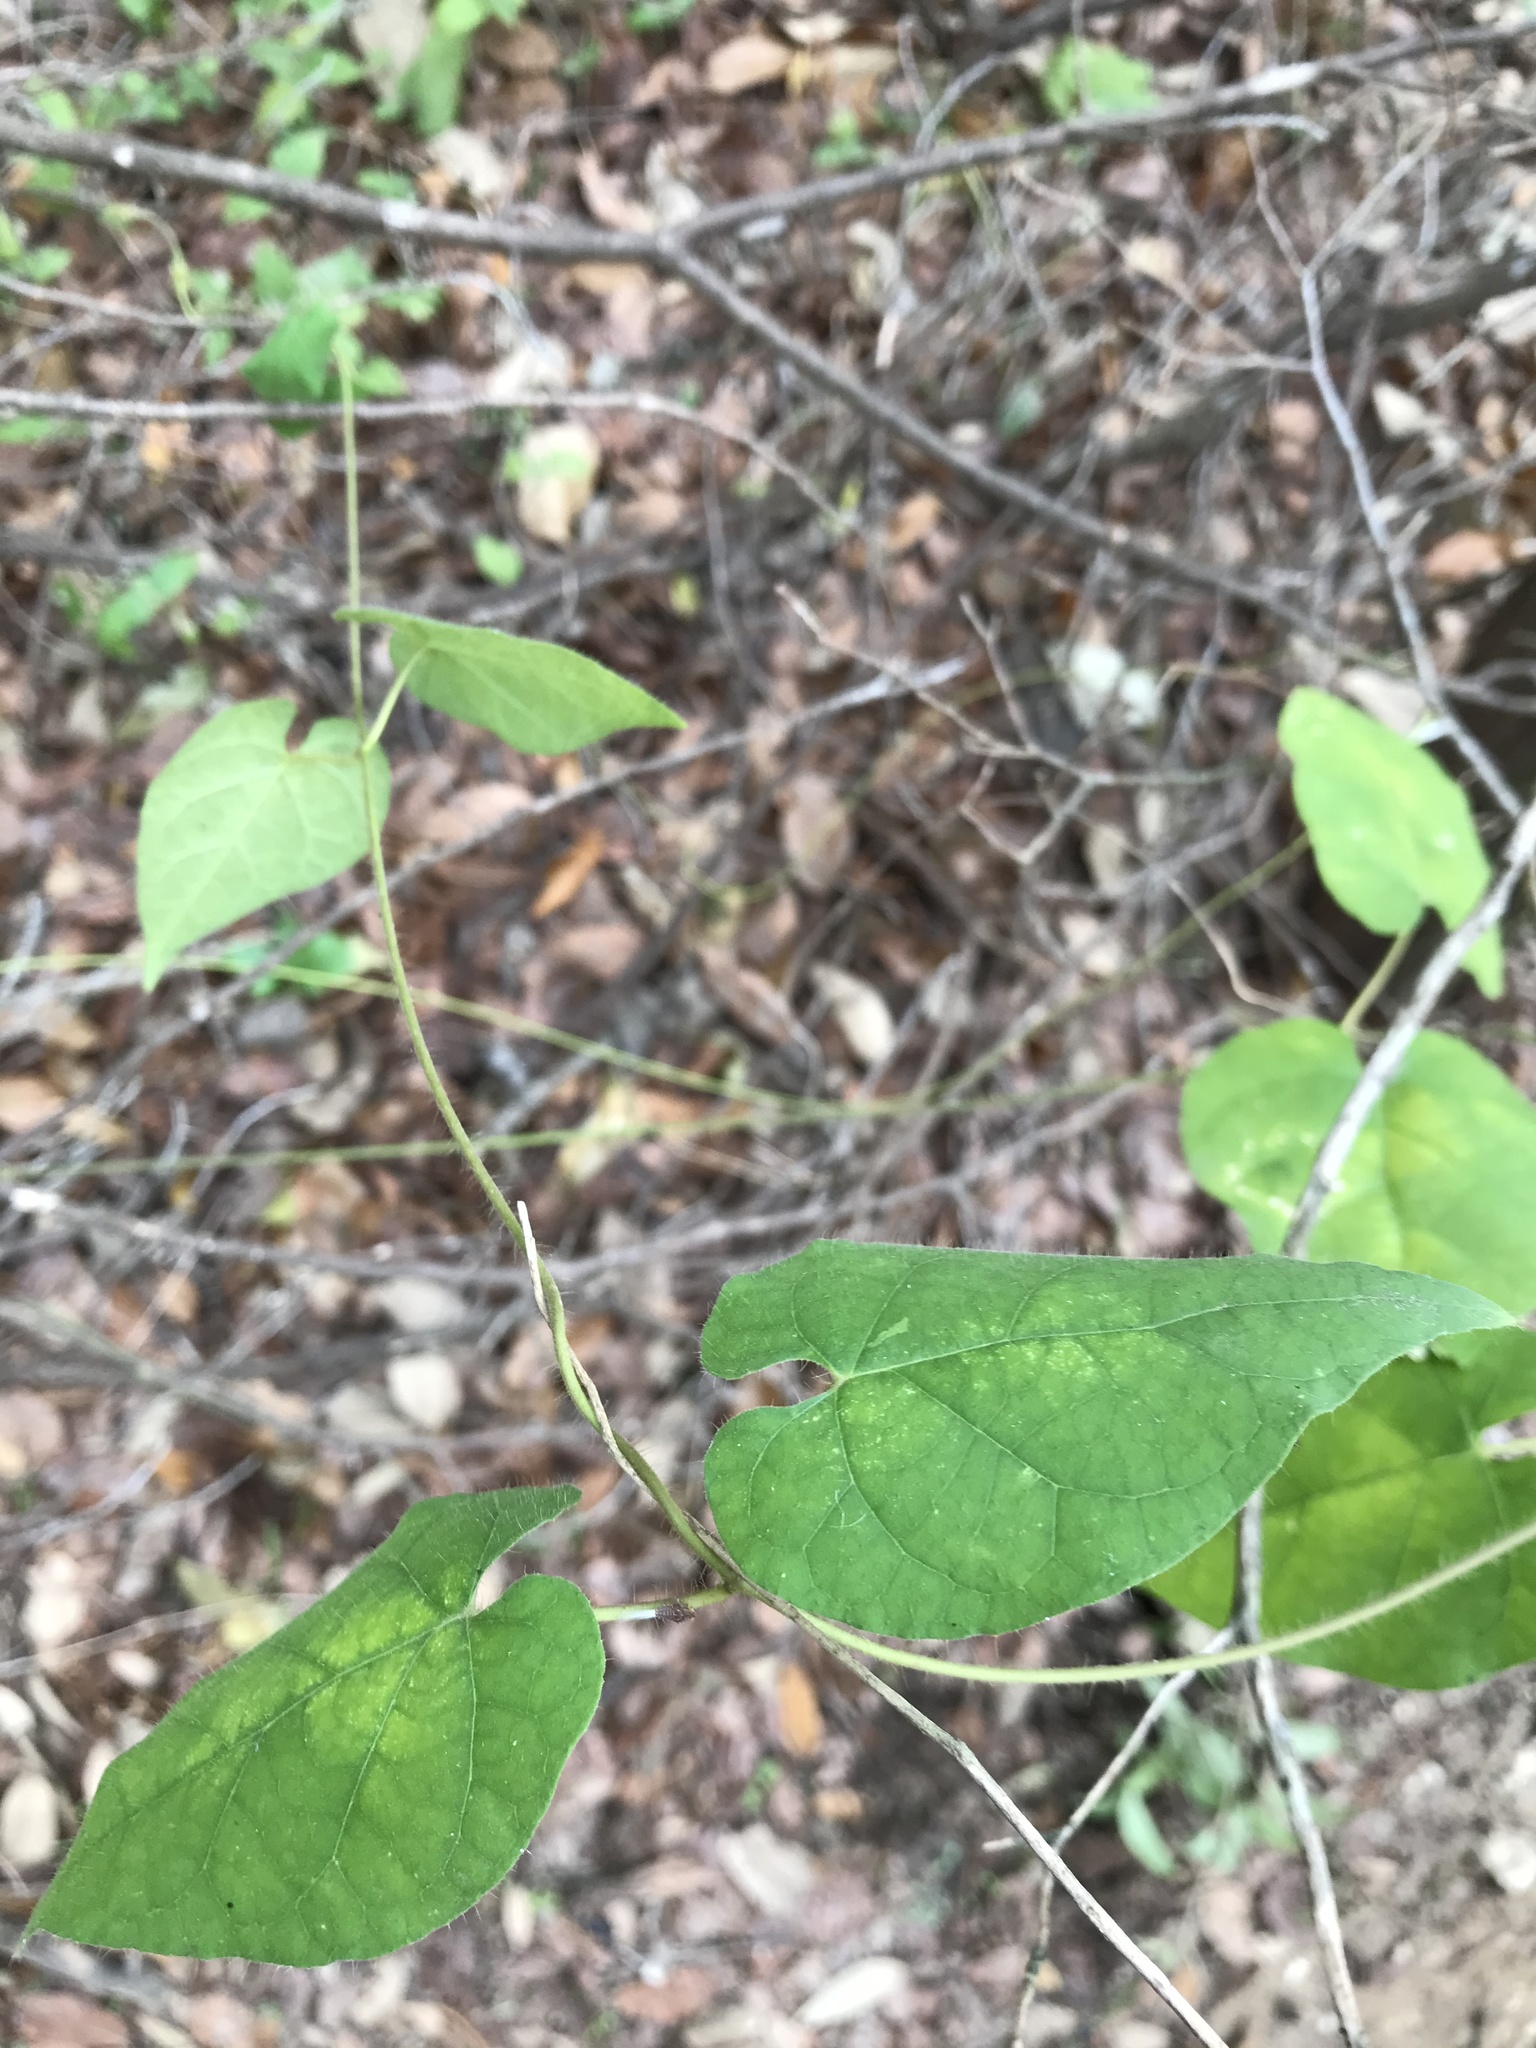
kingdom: Plantae
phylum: Tracheophyta
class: Magnoliopsida
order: Gentianales
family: Apocynaceae
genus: Dictyanthus
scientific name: Dictyanthus reticulatus
